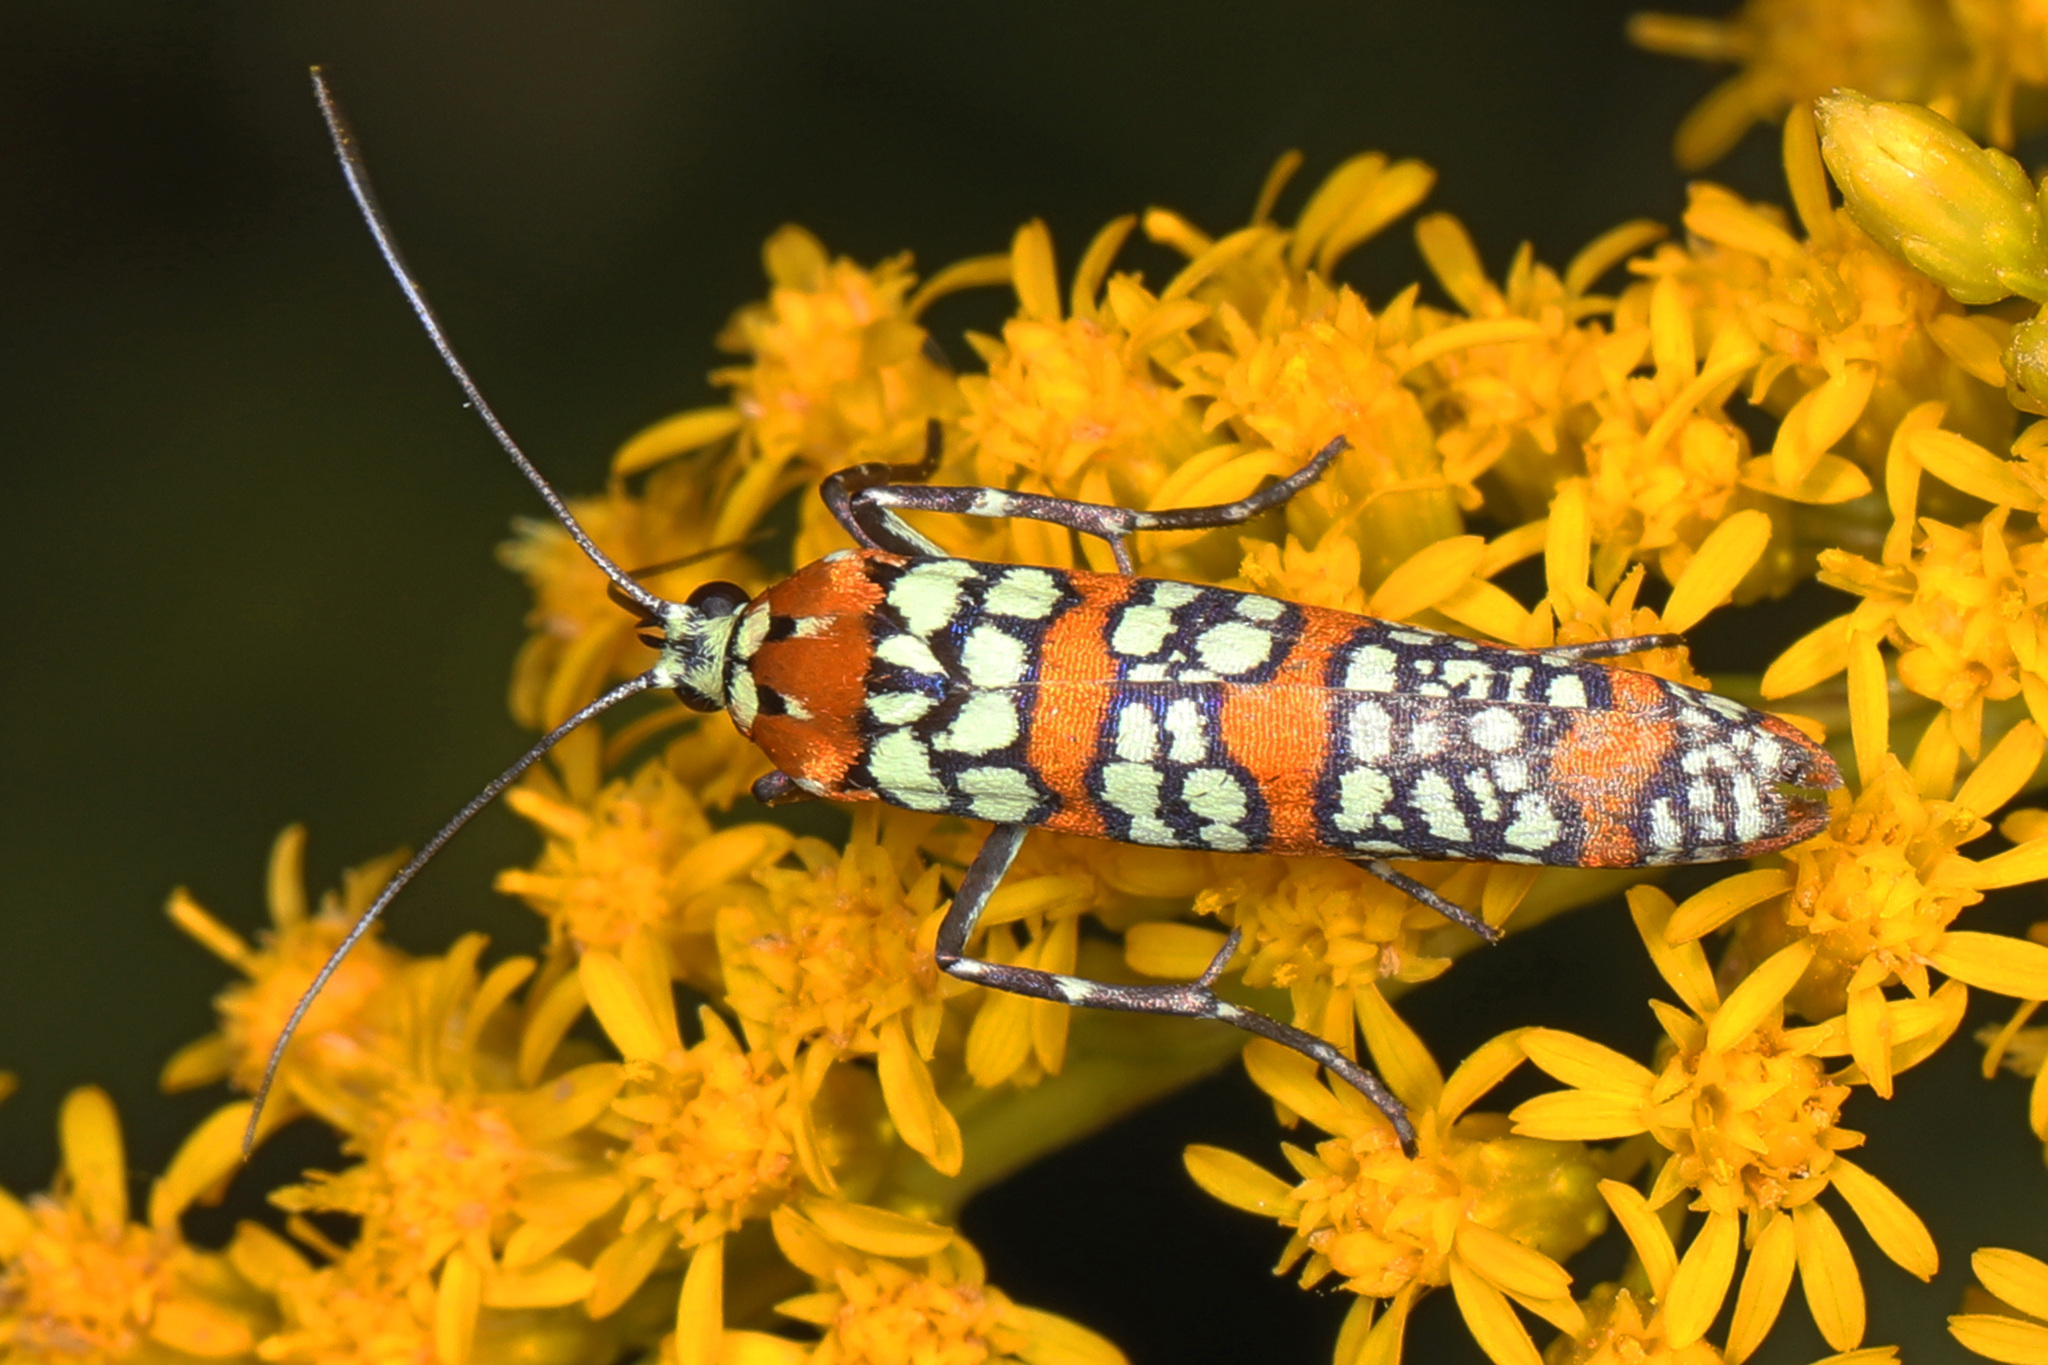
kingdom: Animalia
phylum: Arthropoda
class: Insecta
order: Lepidoptera
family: Attevidae
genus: Atteva
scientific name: Atteva punctella
